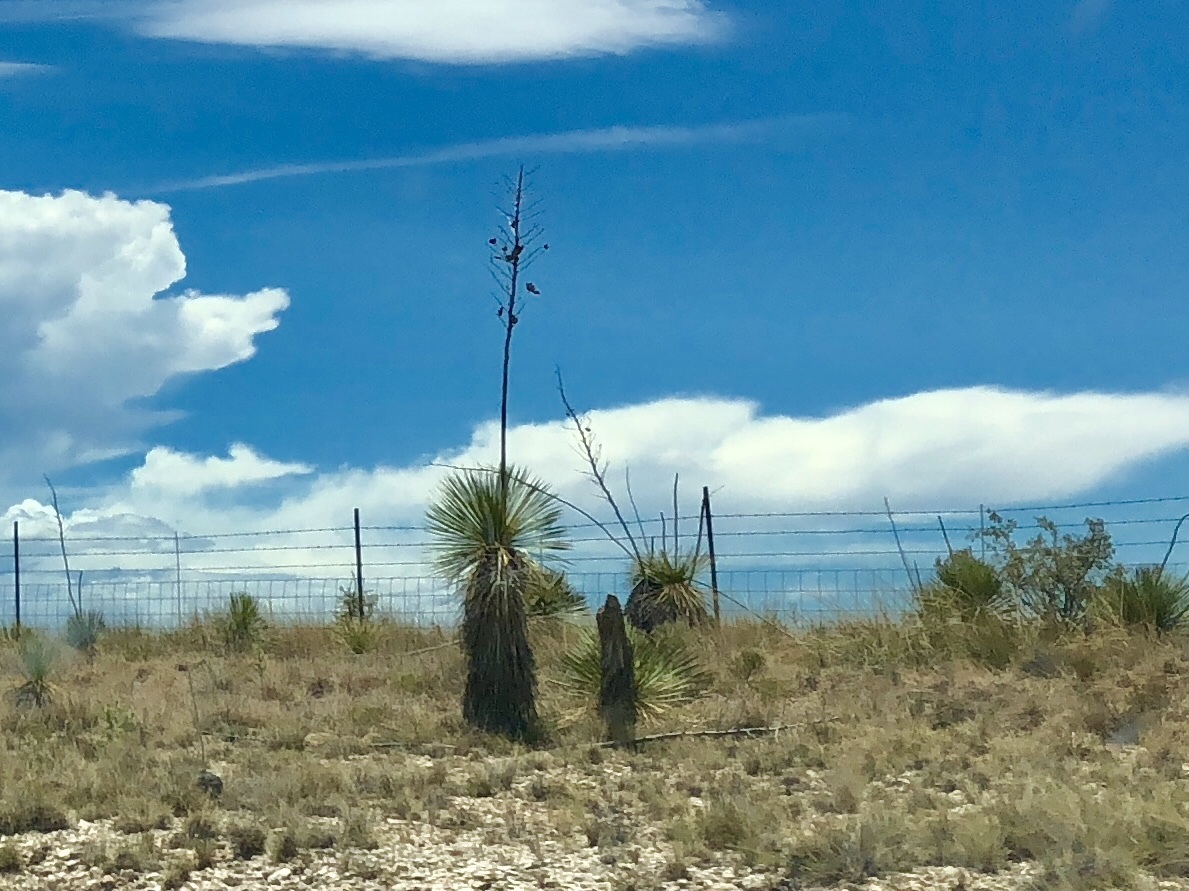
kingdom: Plantae
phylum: Tracheophyta
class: Liliopsida
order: Asparagales
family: Asparagaceae
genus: Yucca
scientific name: Yucca elata
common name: Palmella
